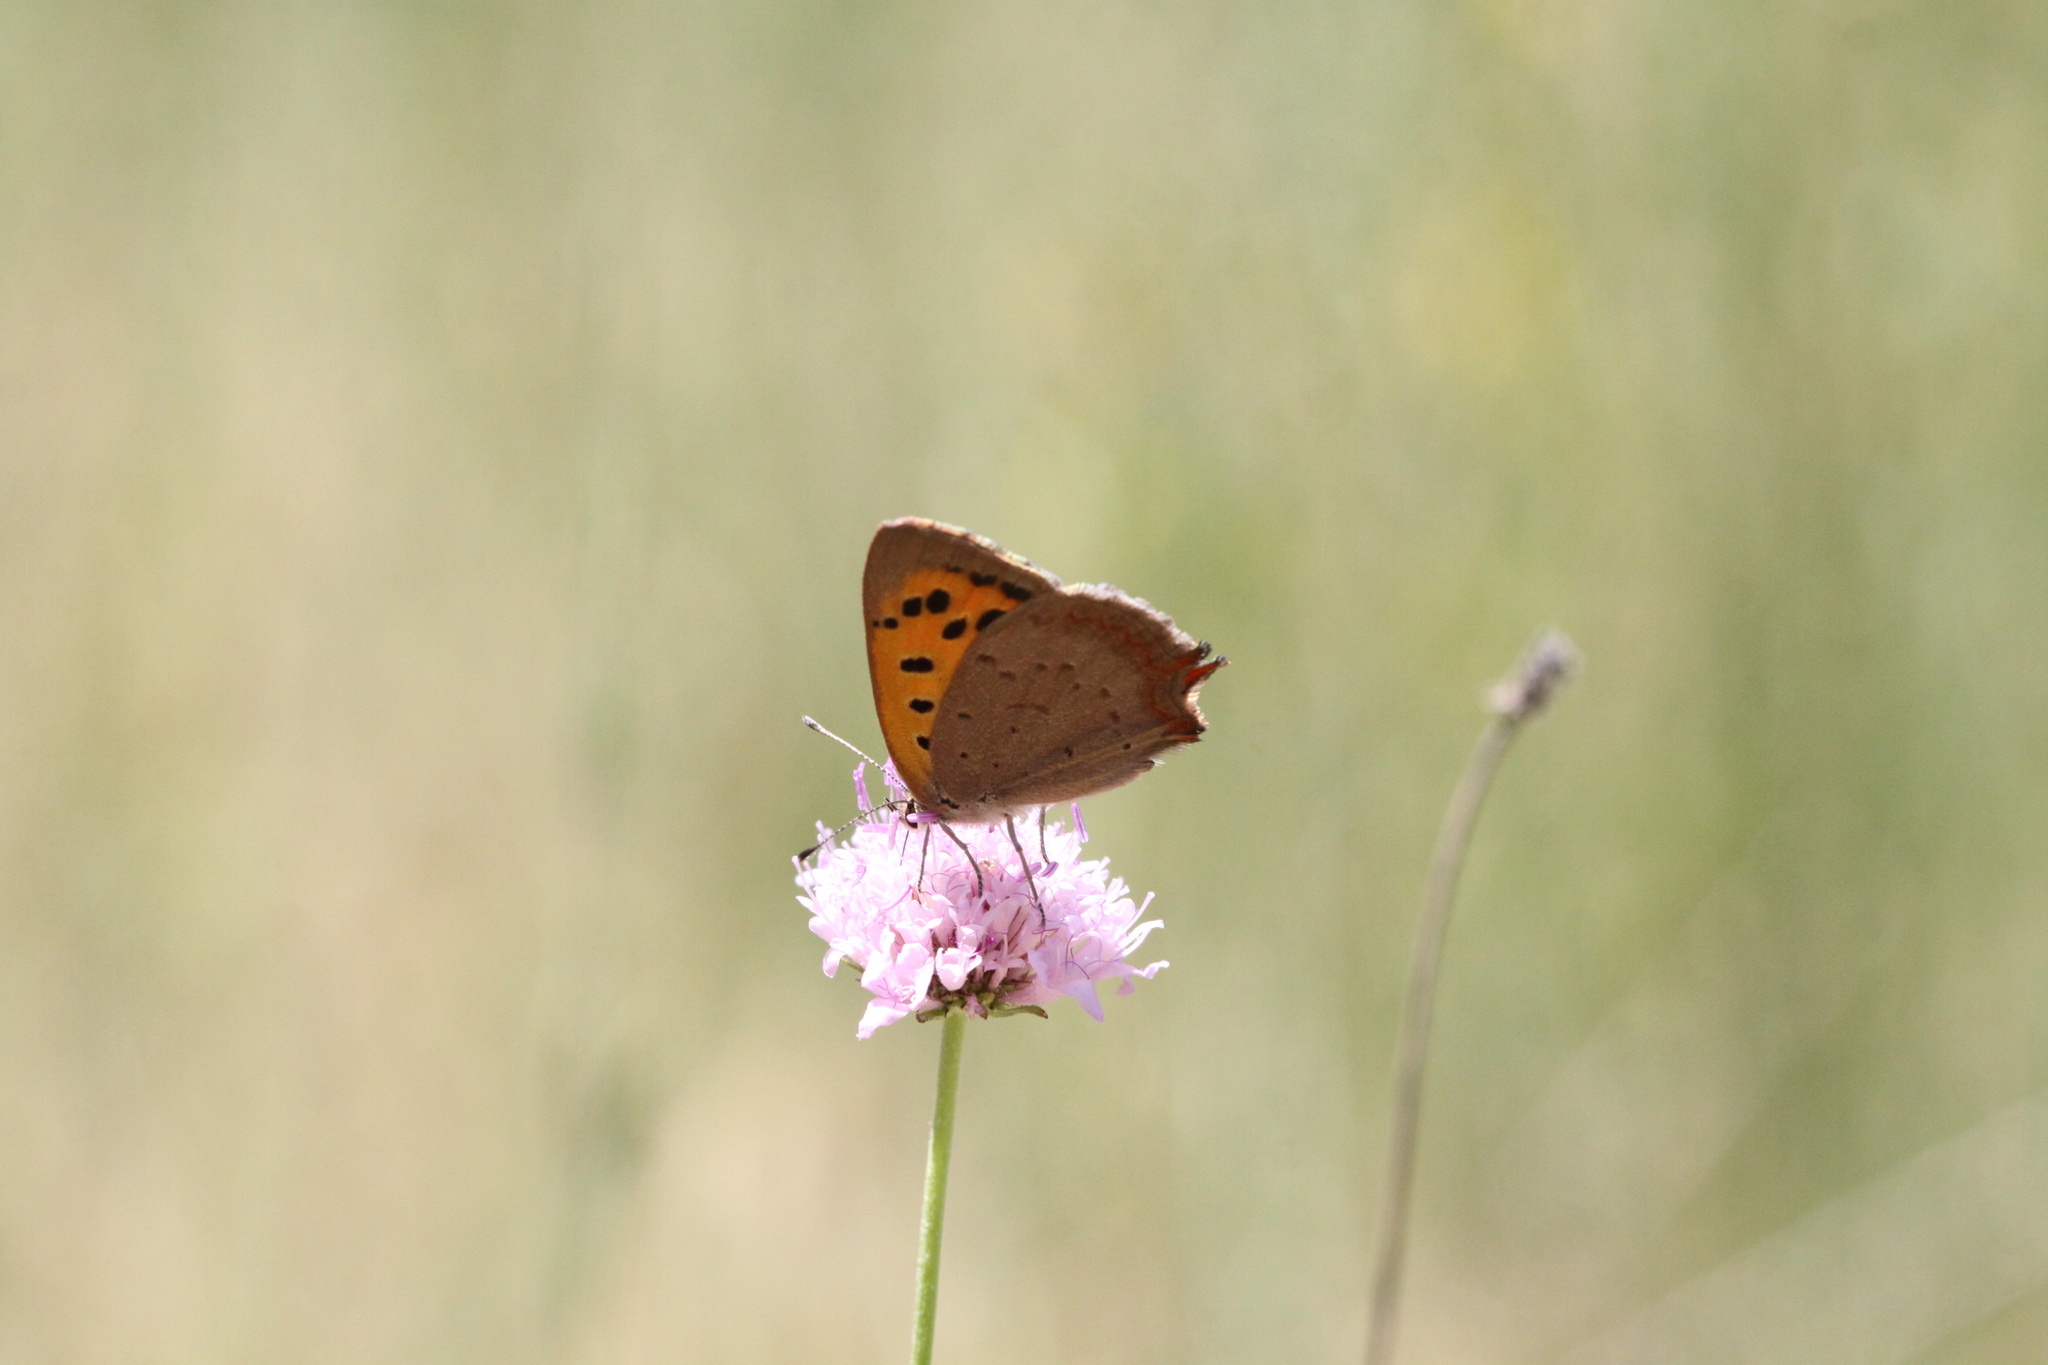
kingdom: Animalia
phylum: Arthropoda
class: Insecta
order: Lepidoptera
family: Lycaenidae
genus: Lycaena
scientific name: Lycaena phlaeas
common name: Small copper
